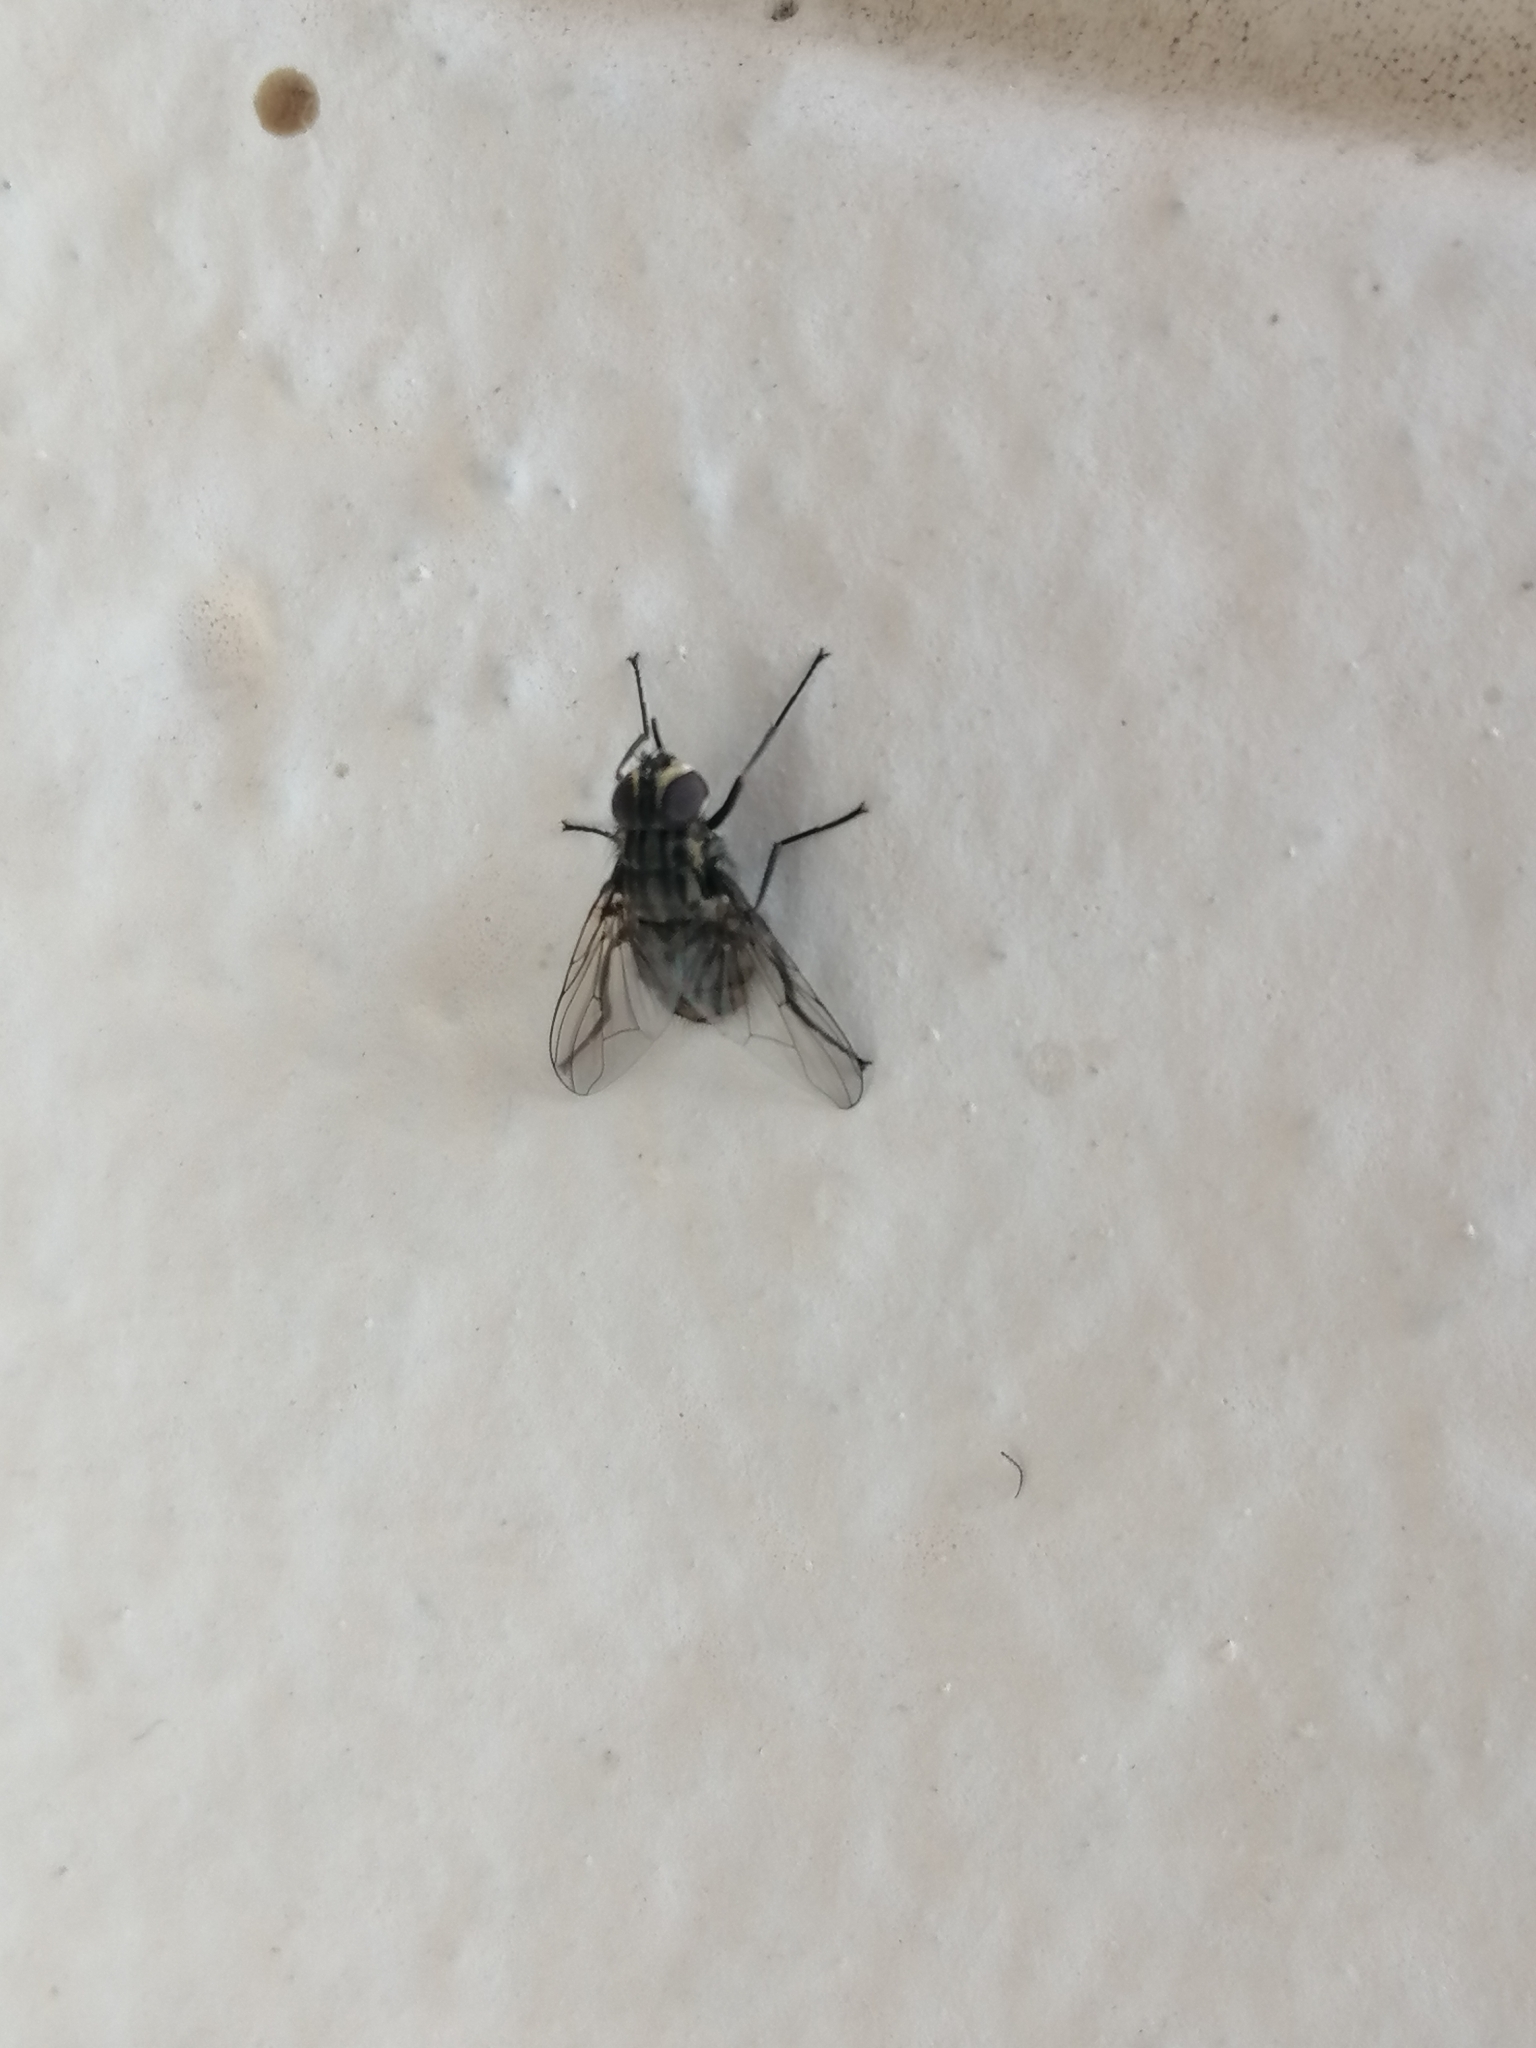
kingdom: Animalia
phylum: Arthropoda
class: Insecta
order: Diptera
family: Muscidae
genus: Stomoxys
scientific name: Stomoxys calcitrans
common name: Stable fly
